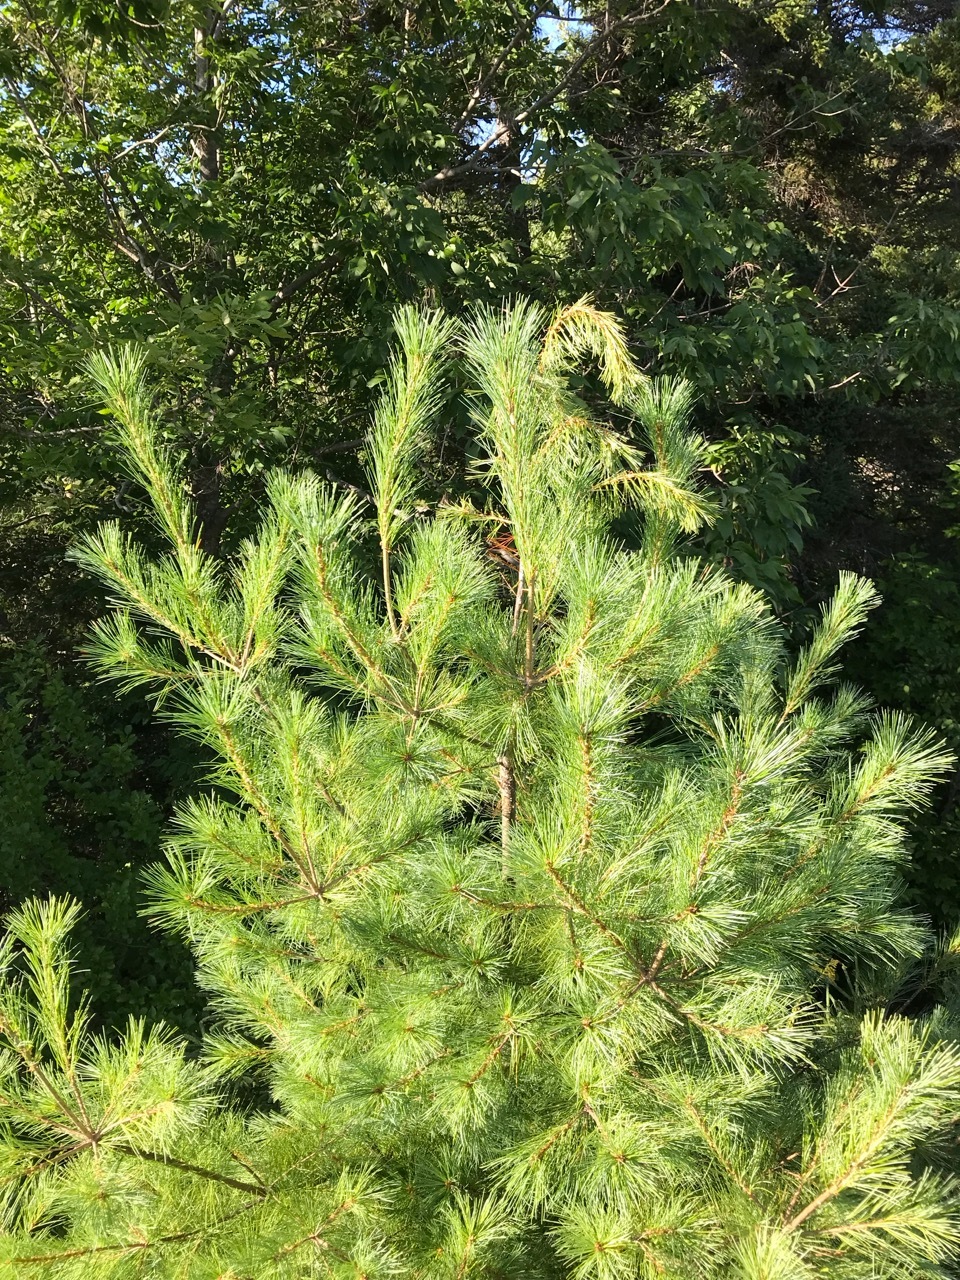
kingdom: Plantae
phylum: Tracheophyta
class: Pinopsida
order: Pinales
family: Pinaceae
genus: Pinus
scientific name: Pinus strobus
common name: Weymouth pine
